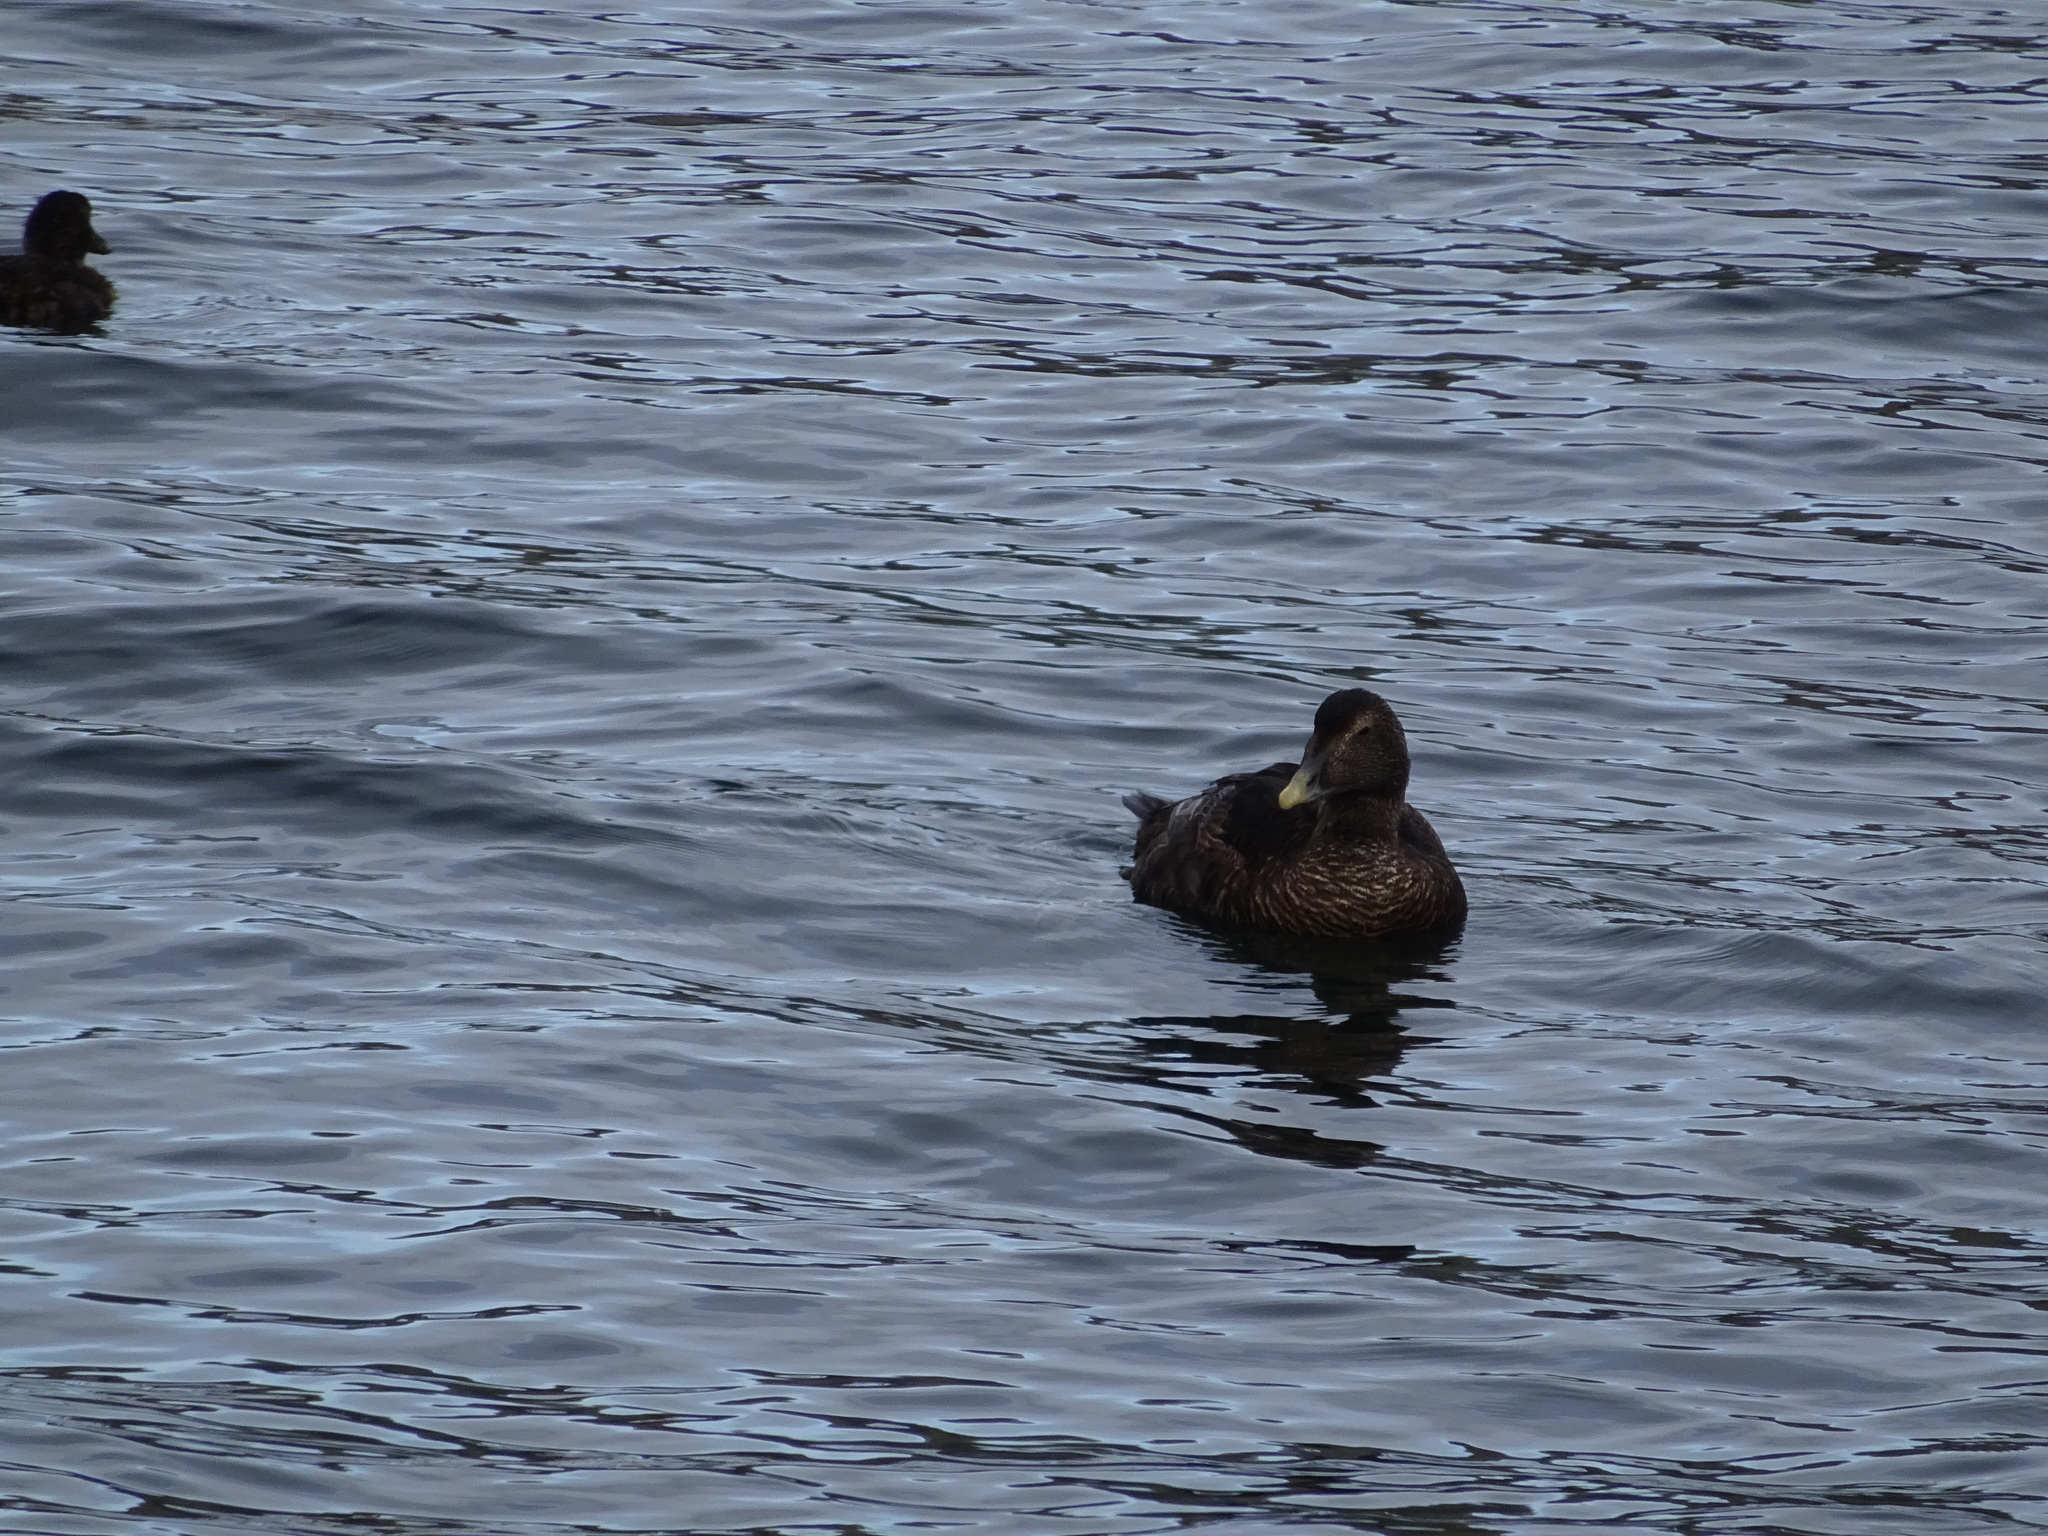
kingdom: Animalia
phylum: Chordata
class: Aves
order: Anseriformes
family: Anatidae
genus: Somateria
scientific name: Somateria mollissima
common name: Common eider
